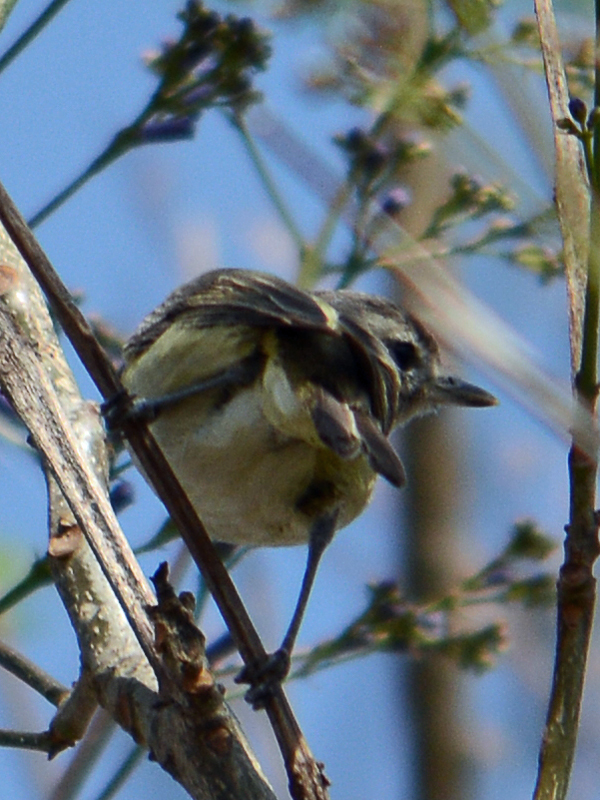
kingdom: Animalia
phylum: Chordata
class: Aves
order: Passeriformes
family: Vireonidae
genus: Vireo
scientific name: Vireo gilvus
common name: Warbling vireo
